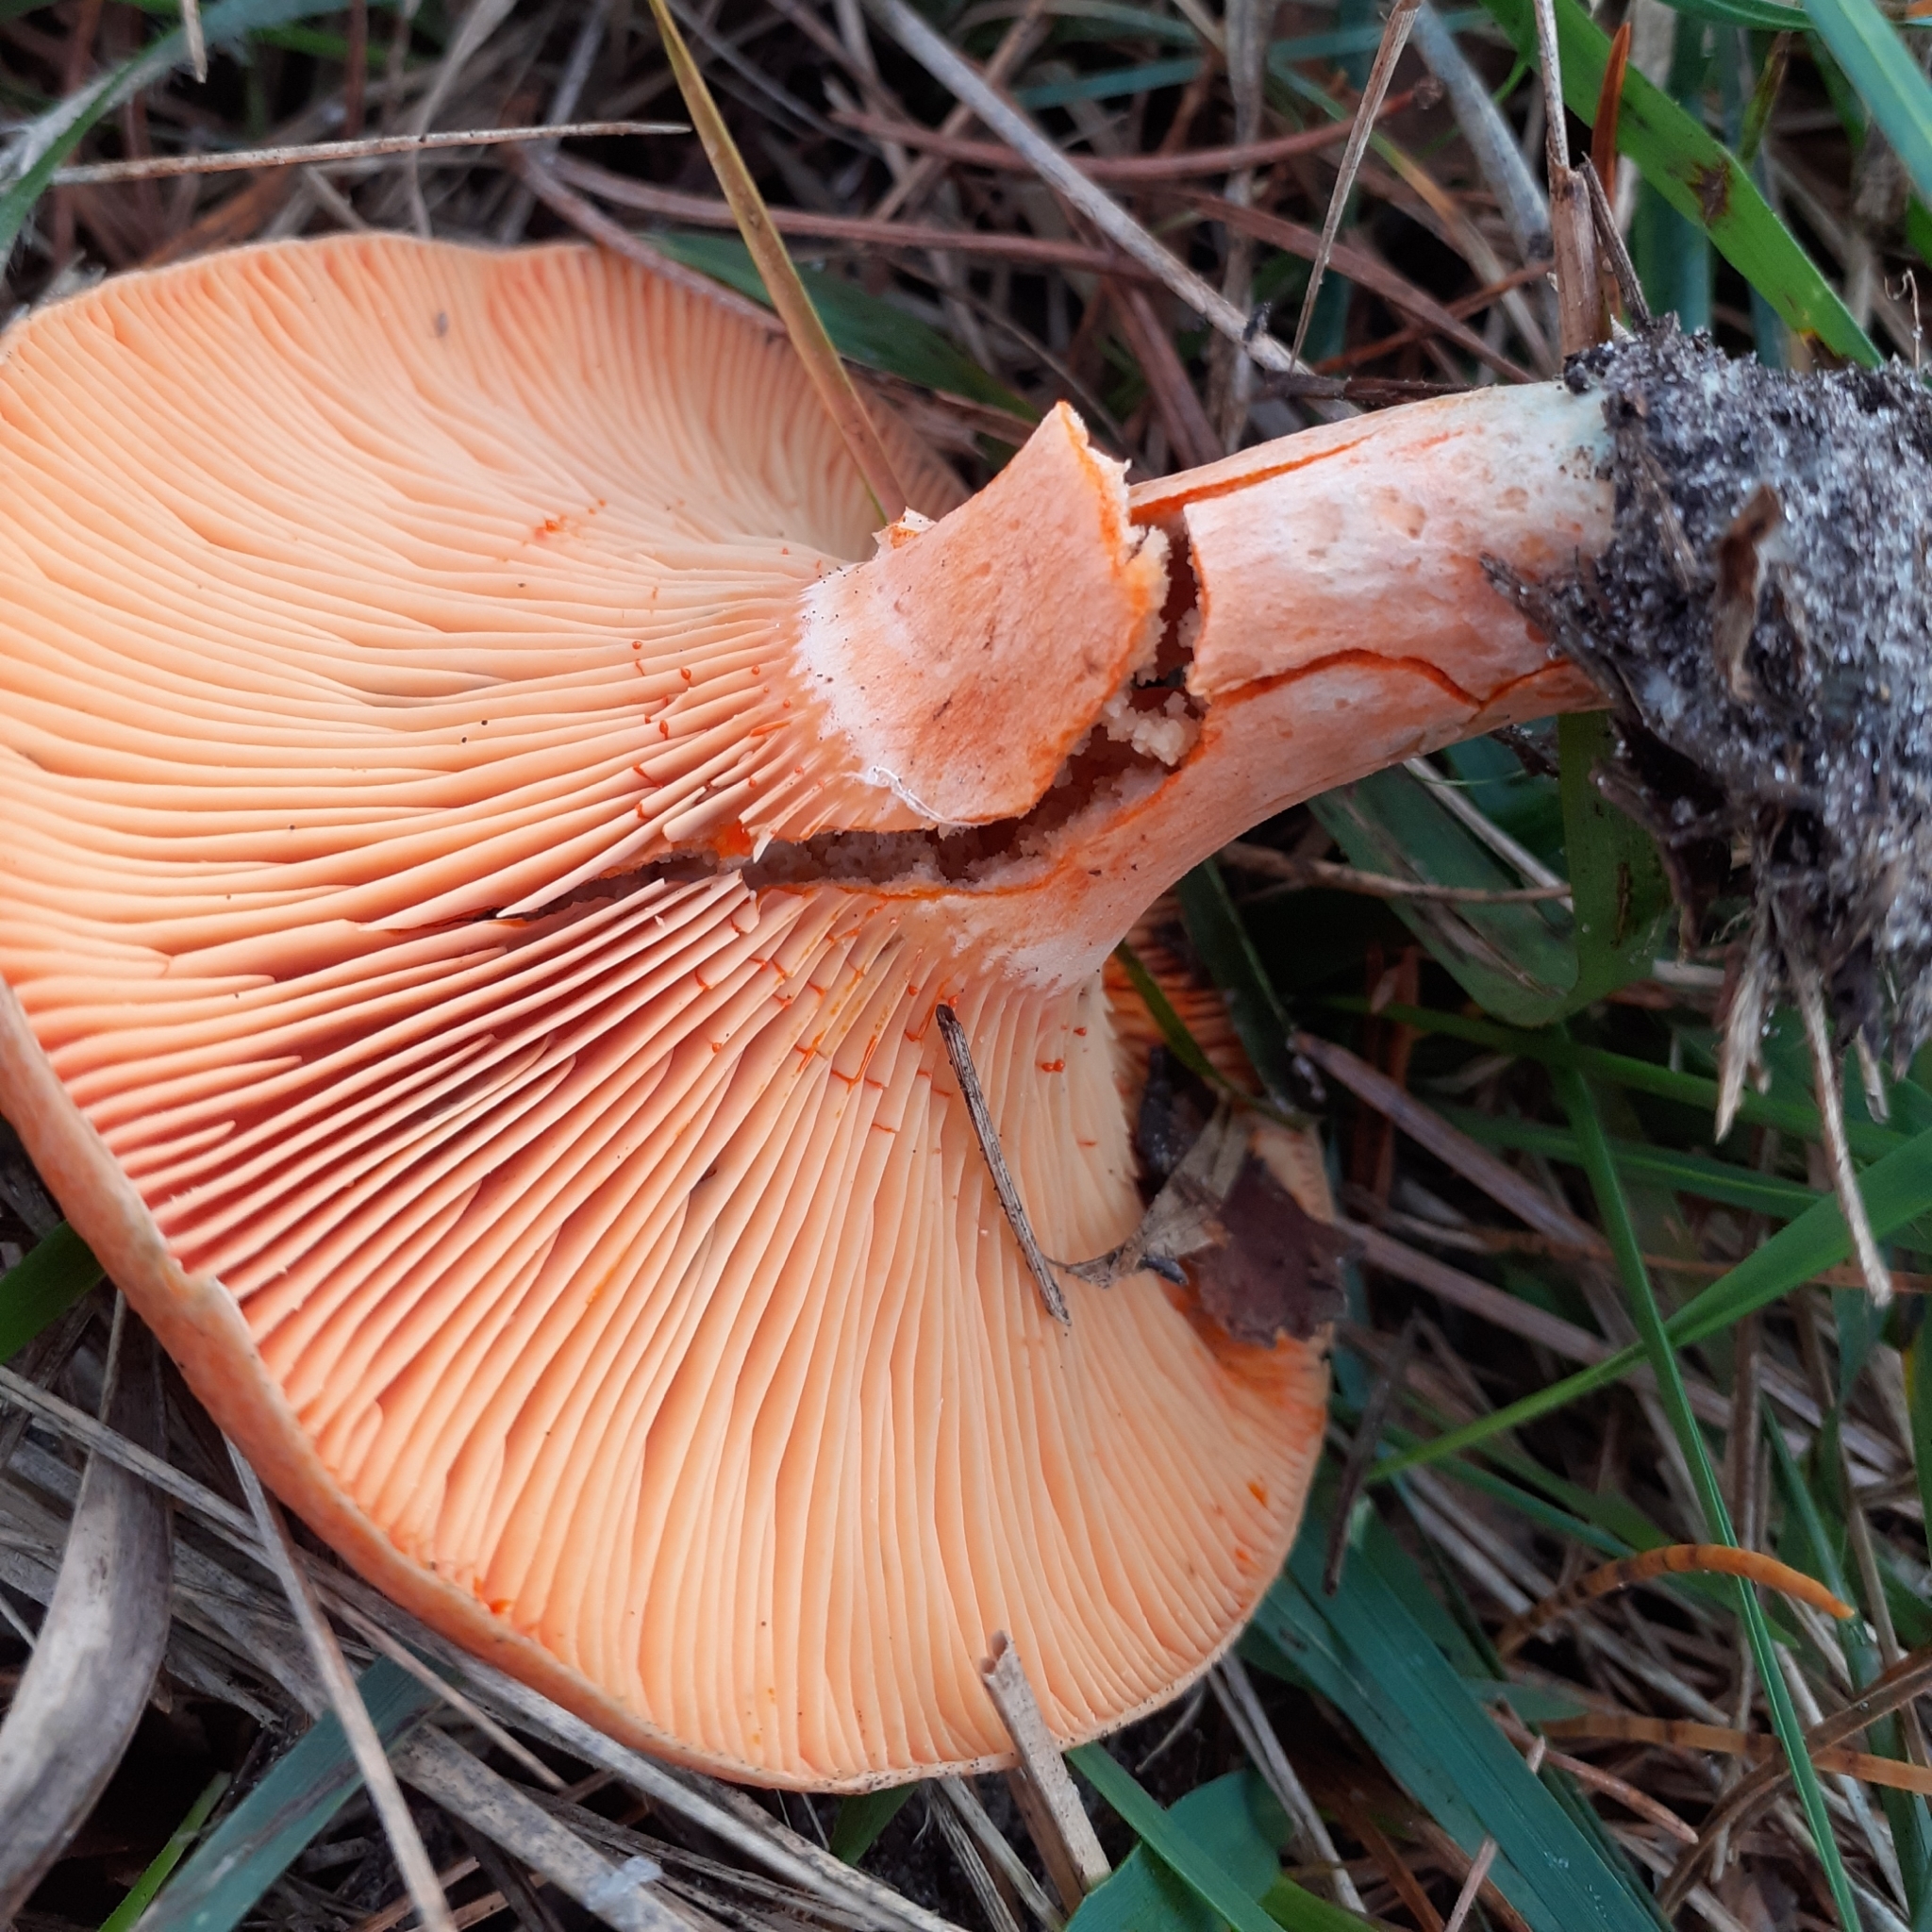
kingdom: Fungi
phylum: Basidiomycota
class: Agaricomycetes
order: Russulales
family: Russulaceae
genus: Lactarius
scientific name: Lactarius deliciosus
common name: Saffron milk-cap
